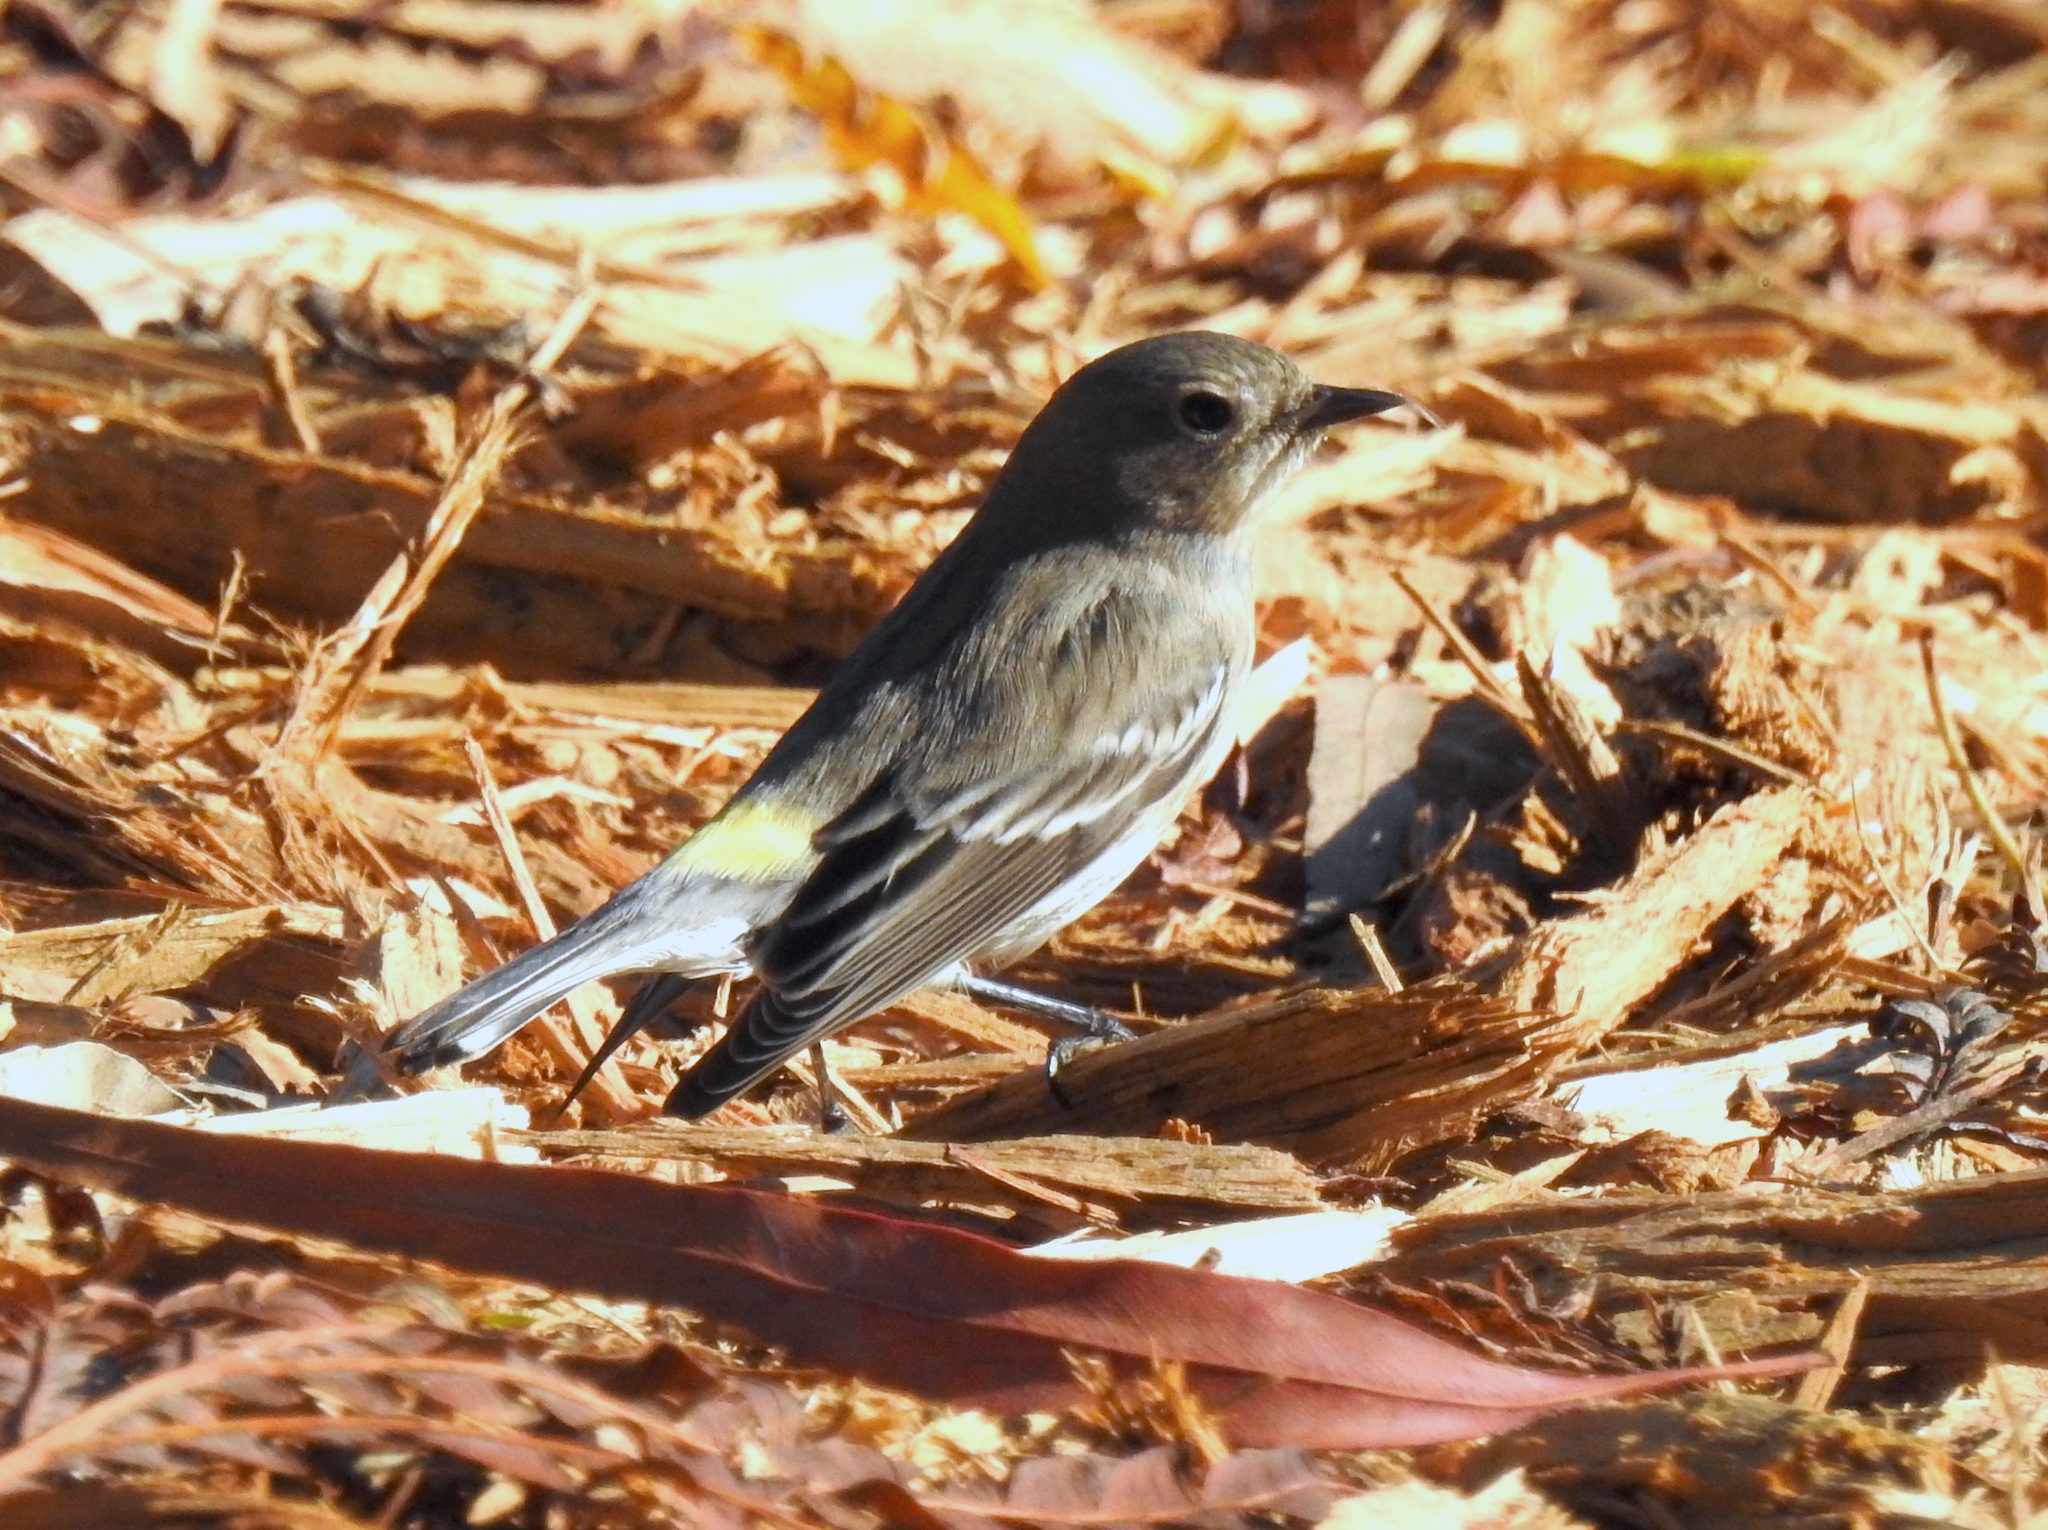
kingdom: Animalia
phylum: Chordata
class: Aves
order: Passeriformes
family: Parulidae
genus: Setophaga
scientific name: Setophaga coronata
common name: Myrtle warbler
